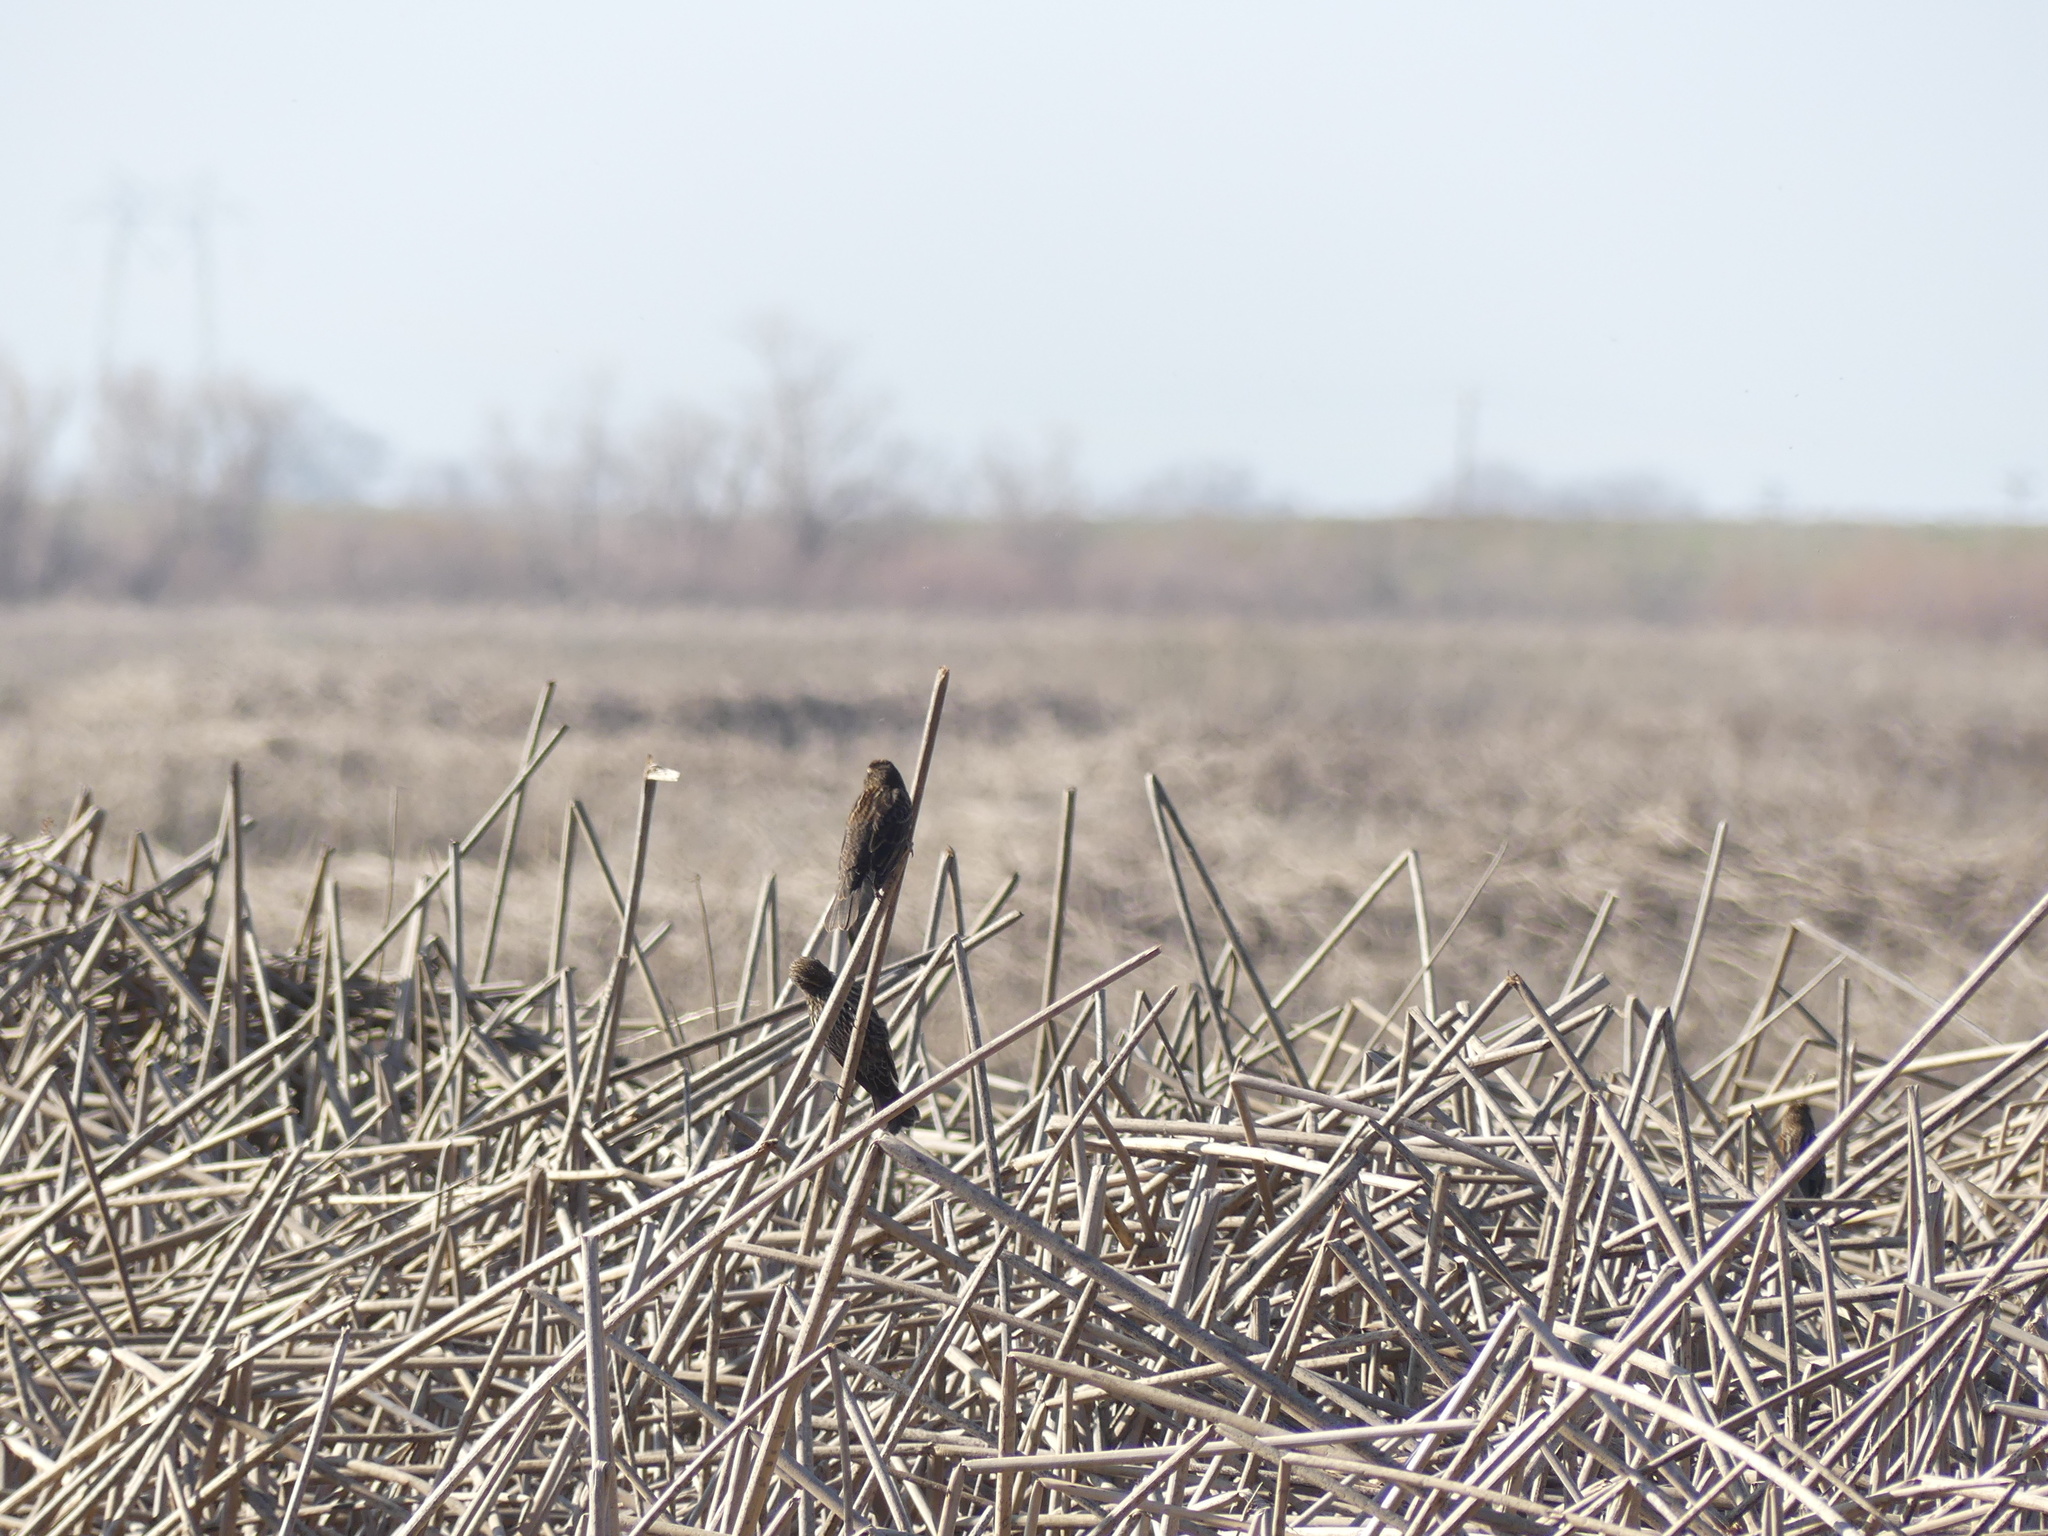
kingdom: Animalia
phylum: Chordata
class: Aves
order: Passeriformes
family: Icteridae
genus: Agelaius
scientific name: Agelaius phoeniceus
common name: Red-winged blackbird
